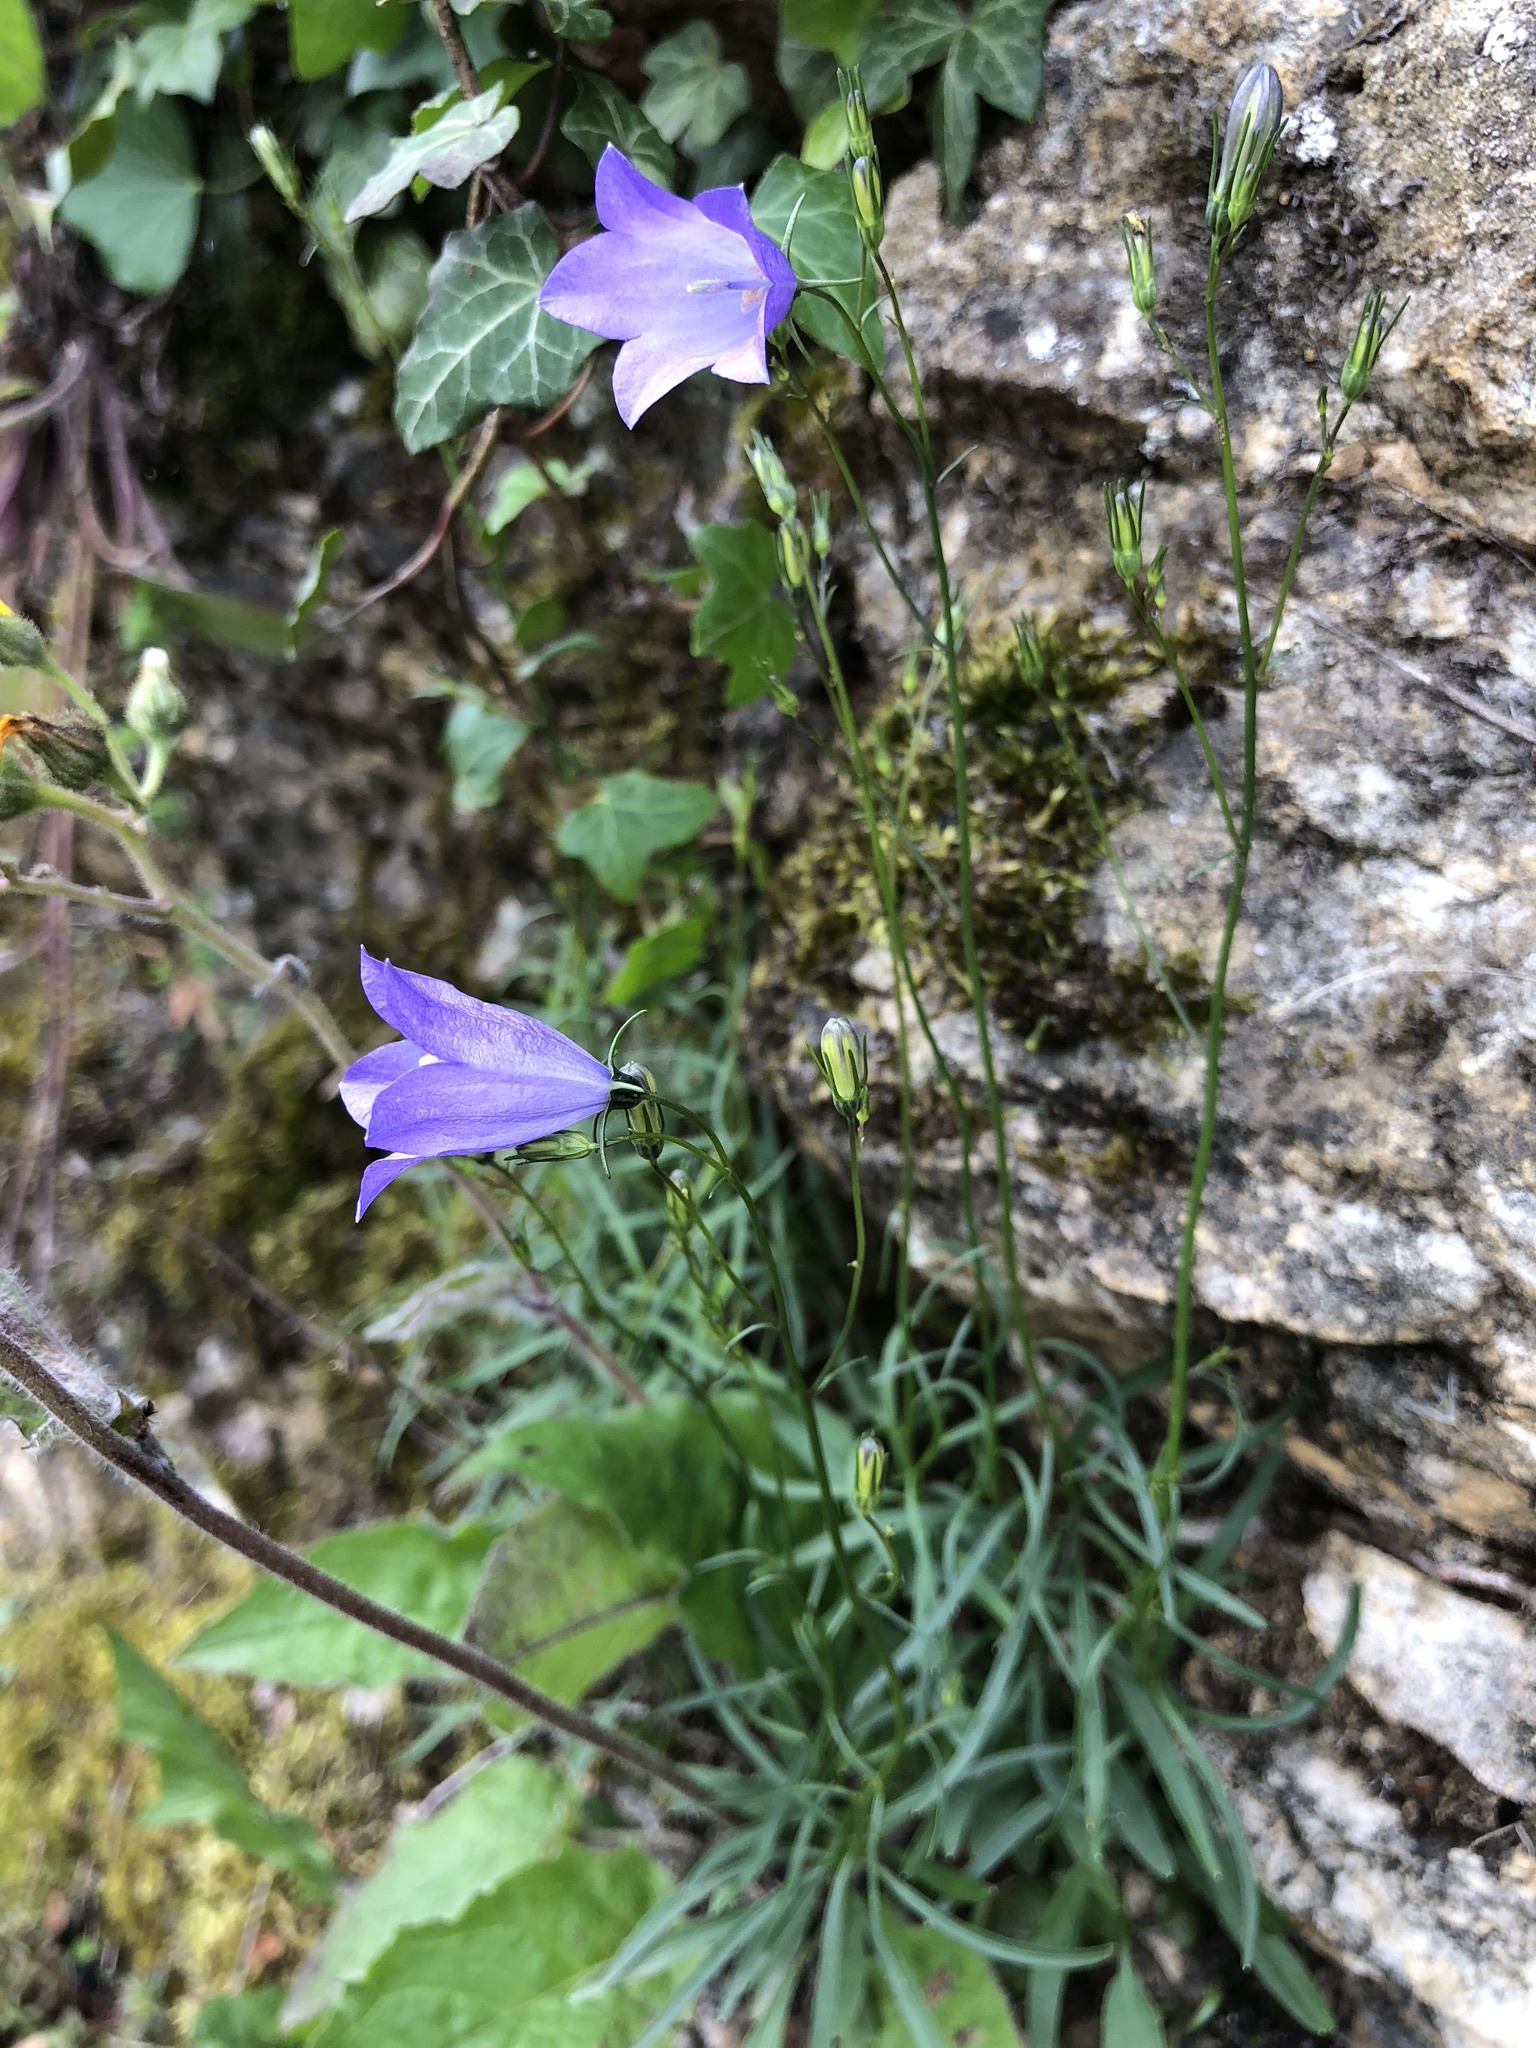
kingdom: Plantae
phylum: Tracheophyta
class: Magnoliopsida
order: Asterales
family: Campanulaceae
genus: Campanula
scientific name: Campanula rotundifolia
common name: Harebell
